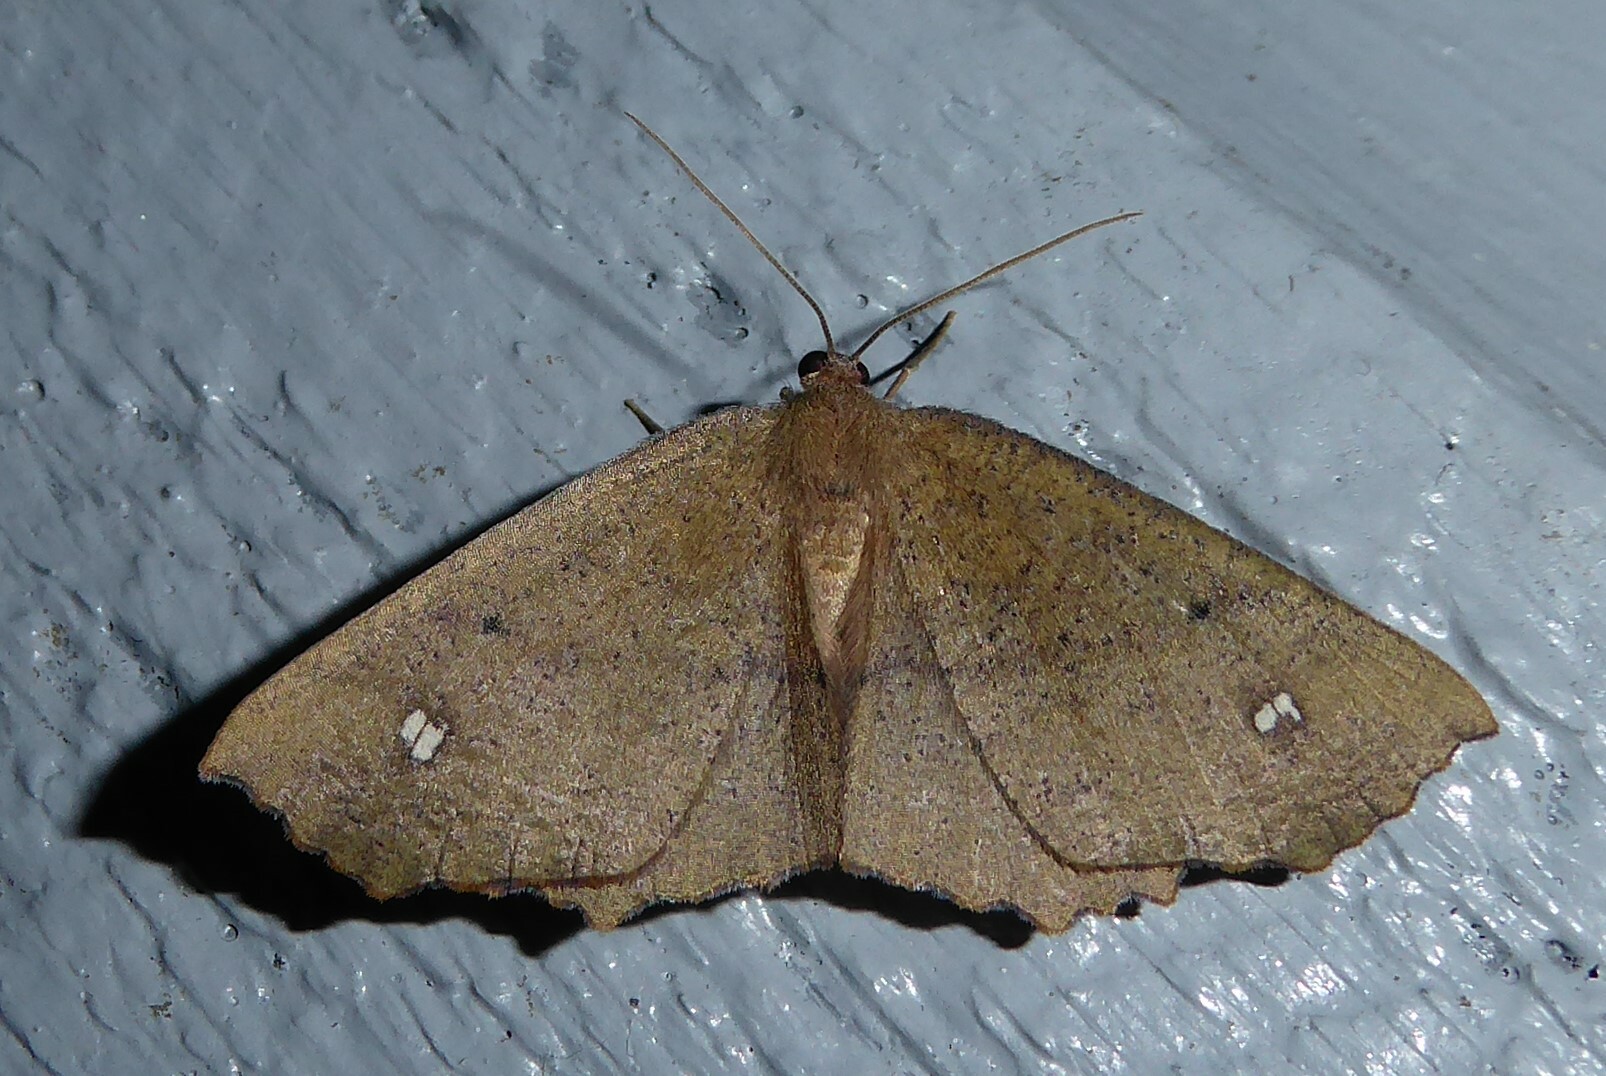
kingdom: Animalia
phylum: Arthropoda
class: Insecta
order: Lepidoptera
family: Geometridae
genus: Xyridacma
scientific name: Xyridacma ustaria
